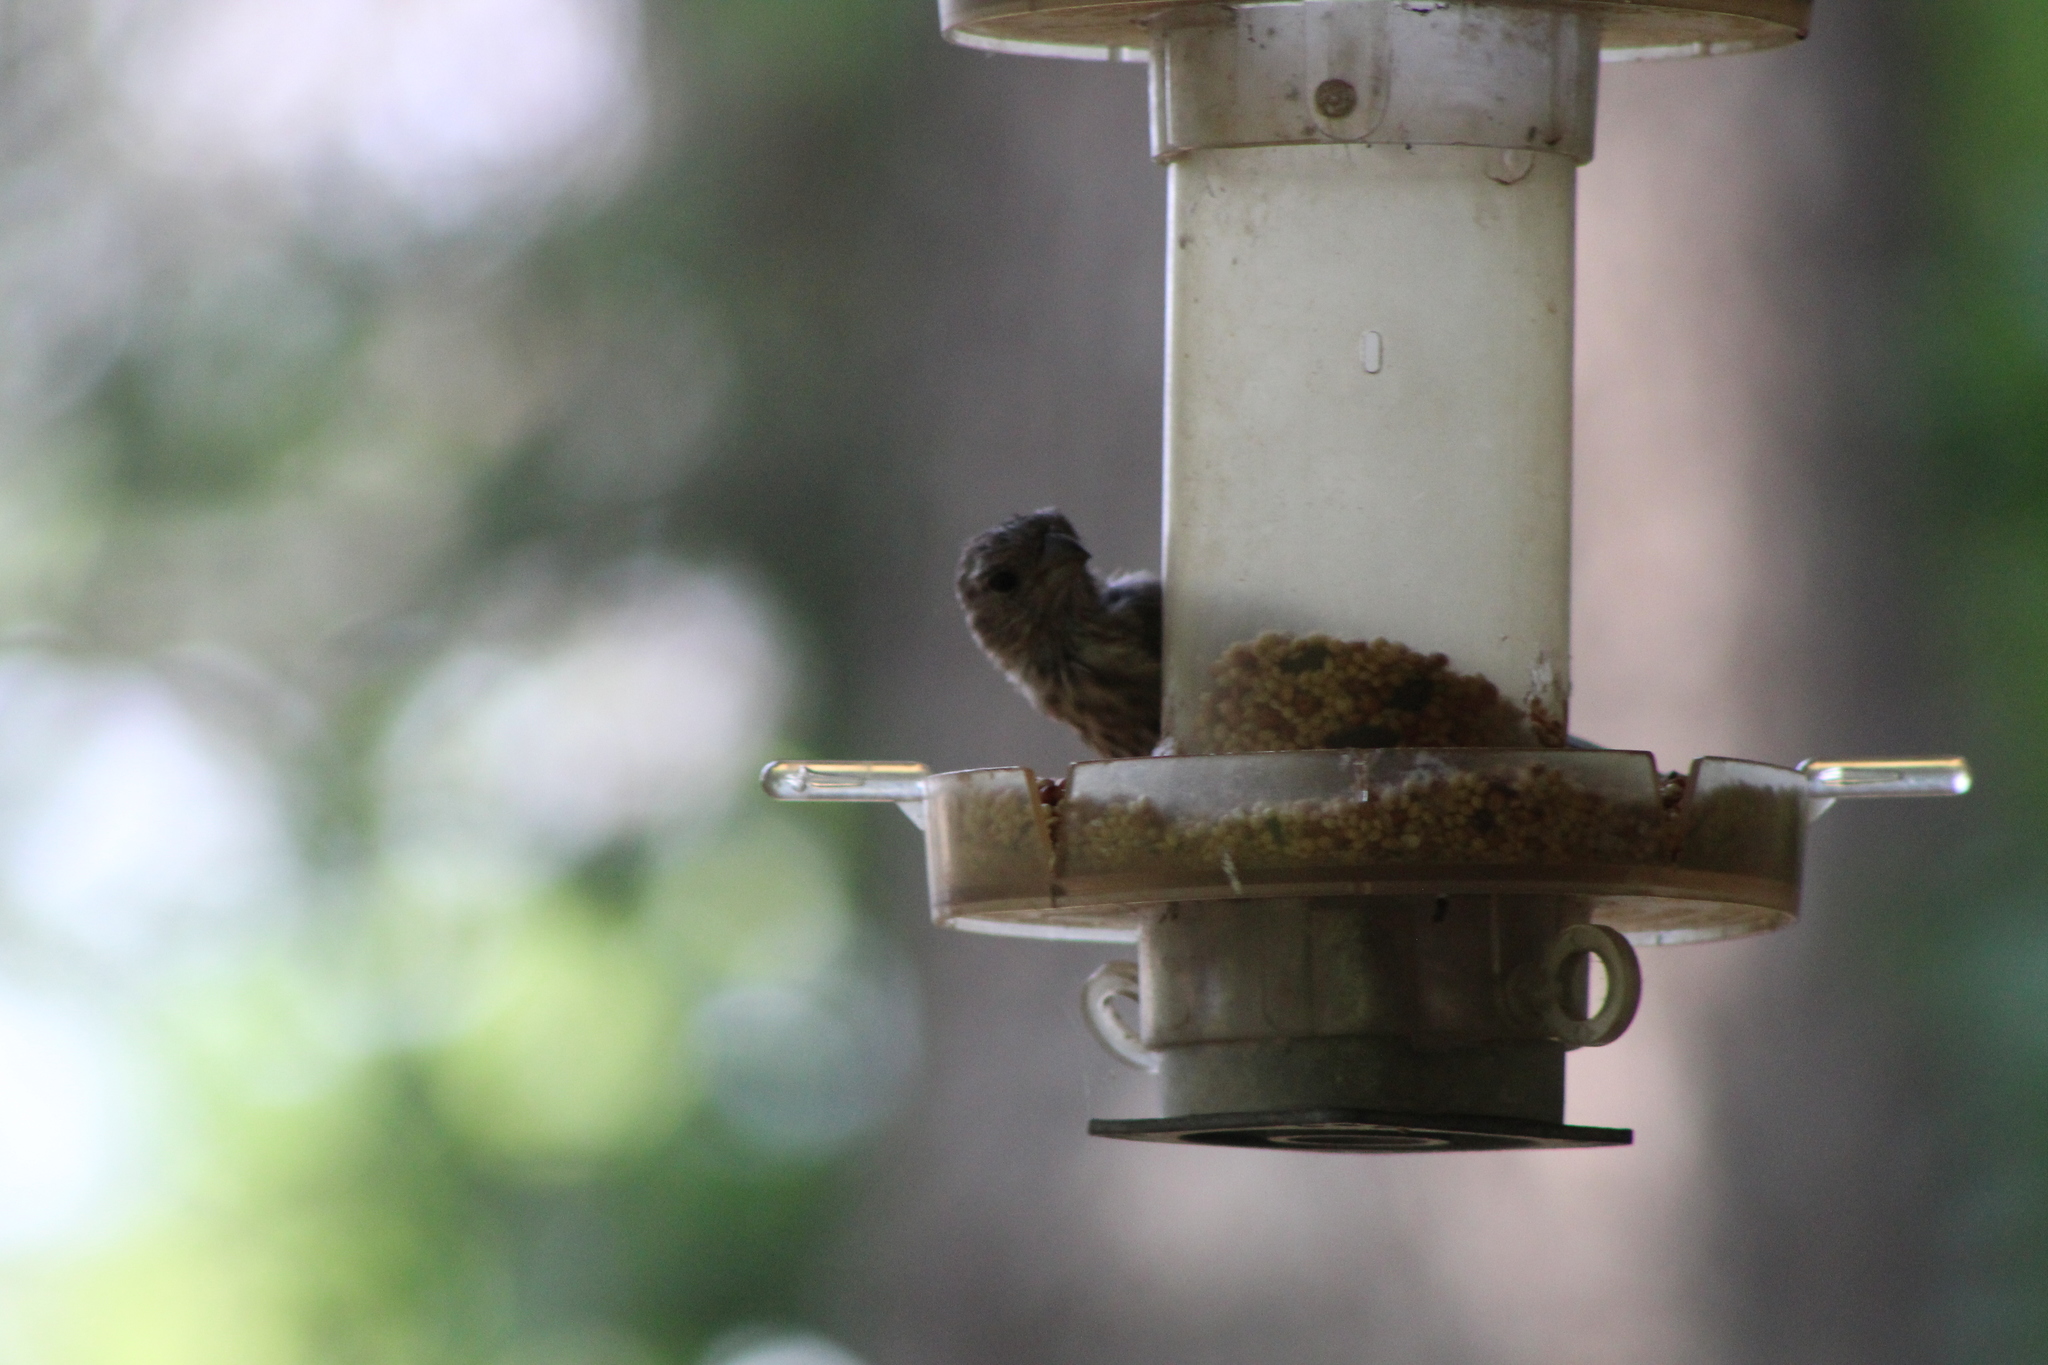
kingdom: Animalia
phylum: Chordata
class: Aves
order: Passeriformes
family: Fringillidae
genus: Haemorhous
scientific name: Haemorhous mexicanus
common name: House finch
